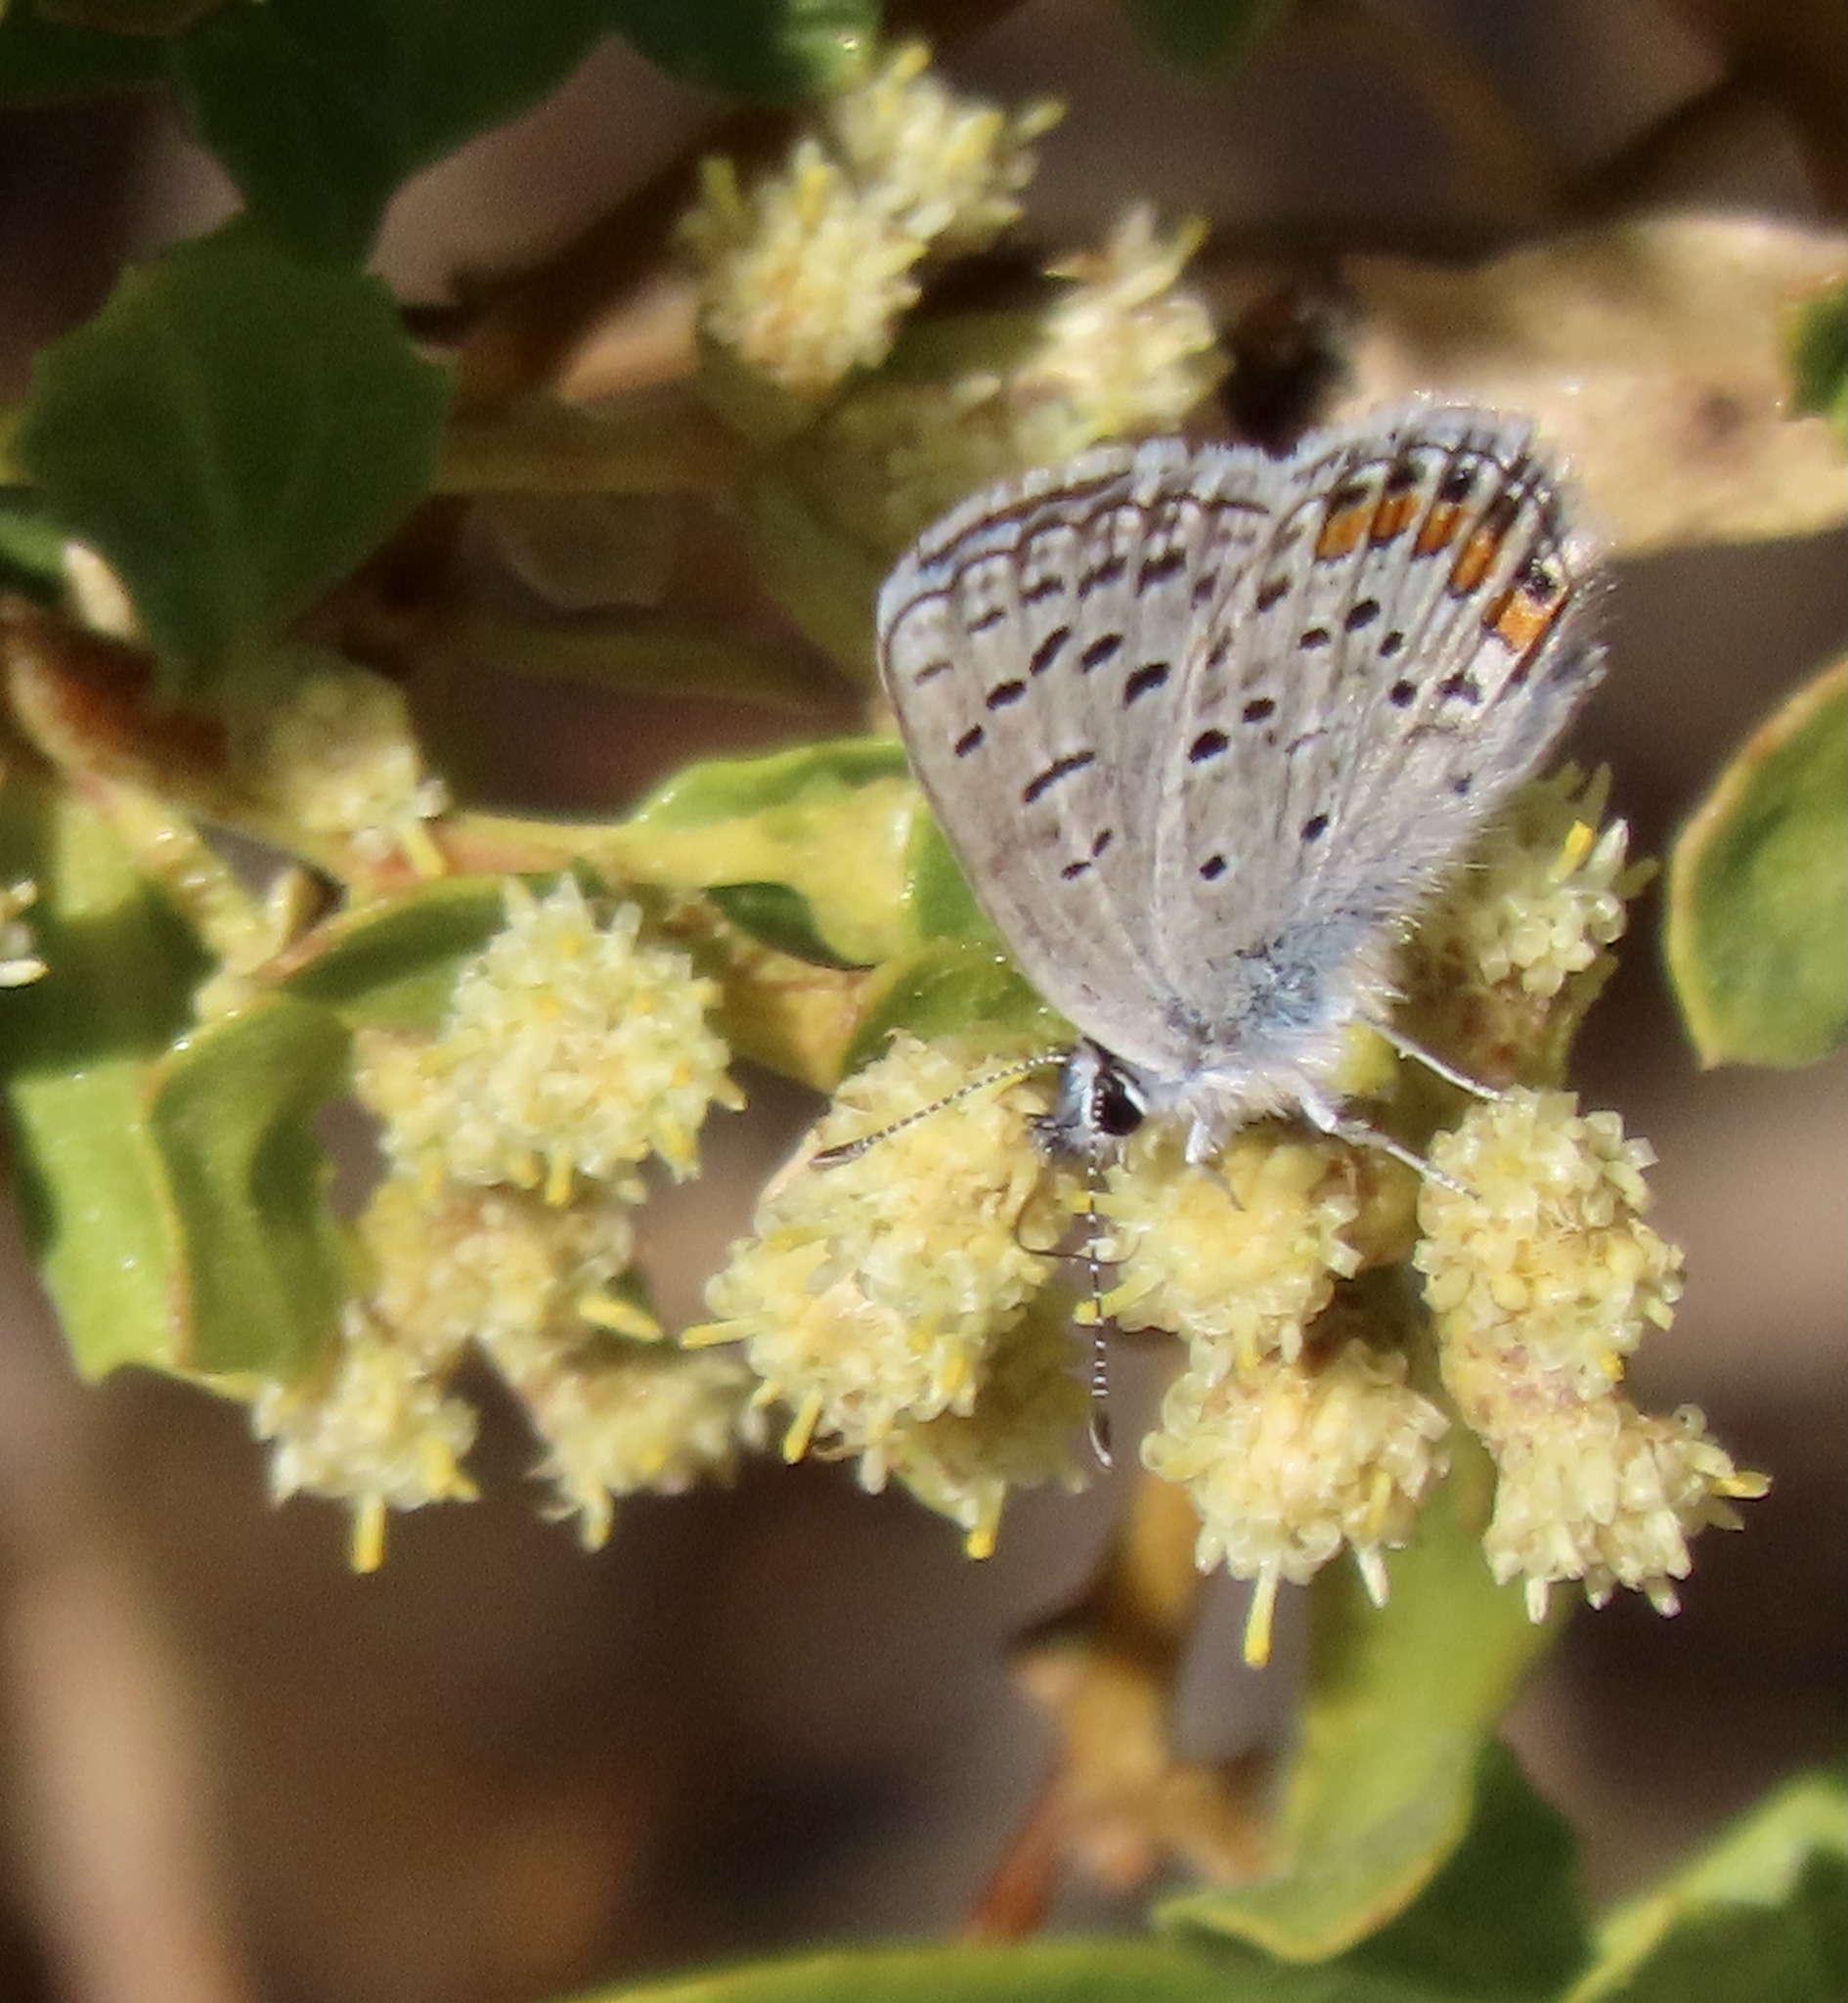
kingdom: Animalia
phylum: Arthropoda
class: Insecta
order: Lepidoptera
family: Lycaenidae
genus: Icaricia
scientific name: Icaricia acmon
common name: Acmon blue
